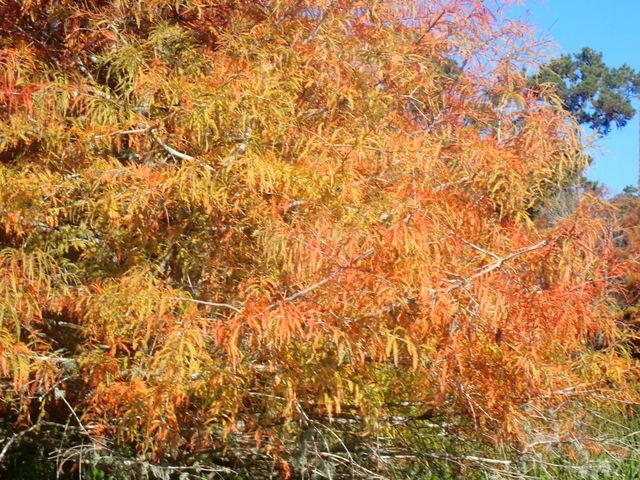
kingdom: Plantae
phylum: Tracheophyta
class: Pinopsida
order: Pinales
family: Cupressaceae
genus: Taxodium
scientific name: Taxodium distichum
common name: Bald cypress
